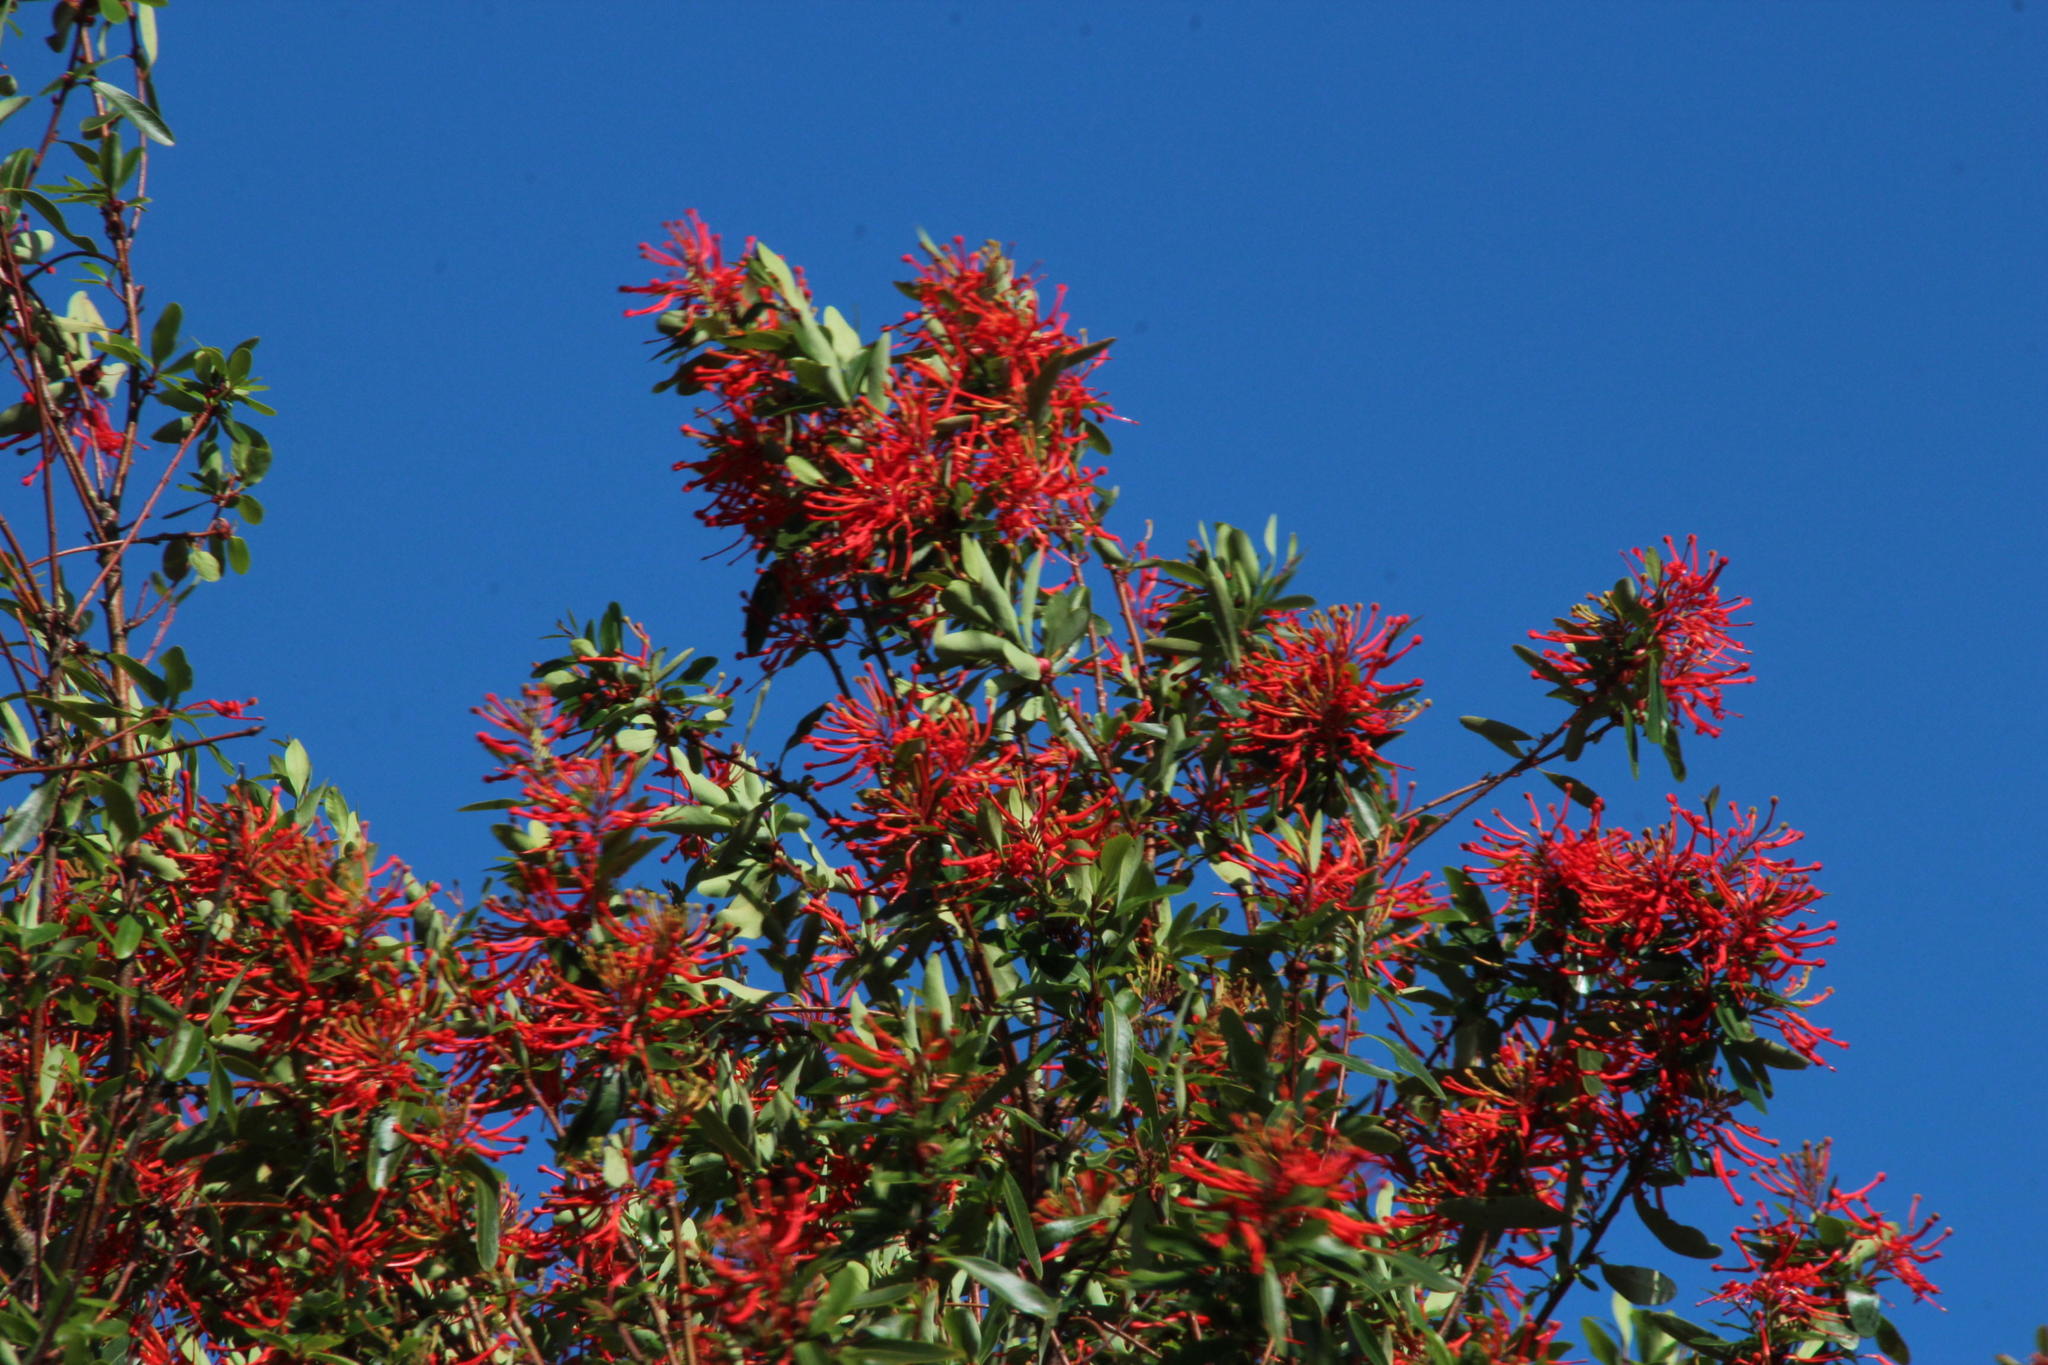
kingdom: Plantae
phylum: Tracheophyta
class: Magnoliopsida
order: Proteales
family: Proteaceae
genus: Embothrium
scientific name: Embothrium coccineum
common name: Chilean firebush
